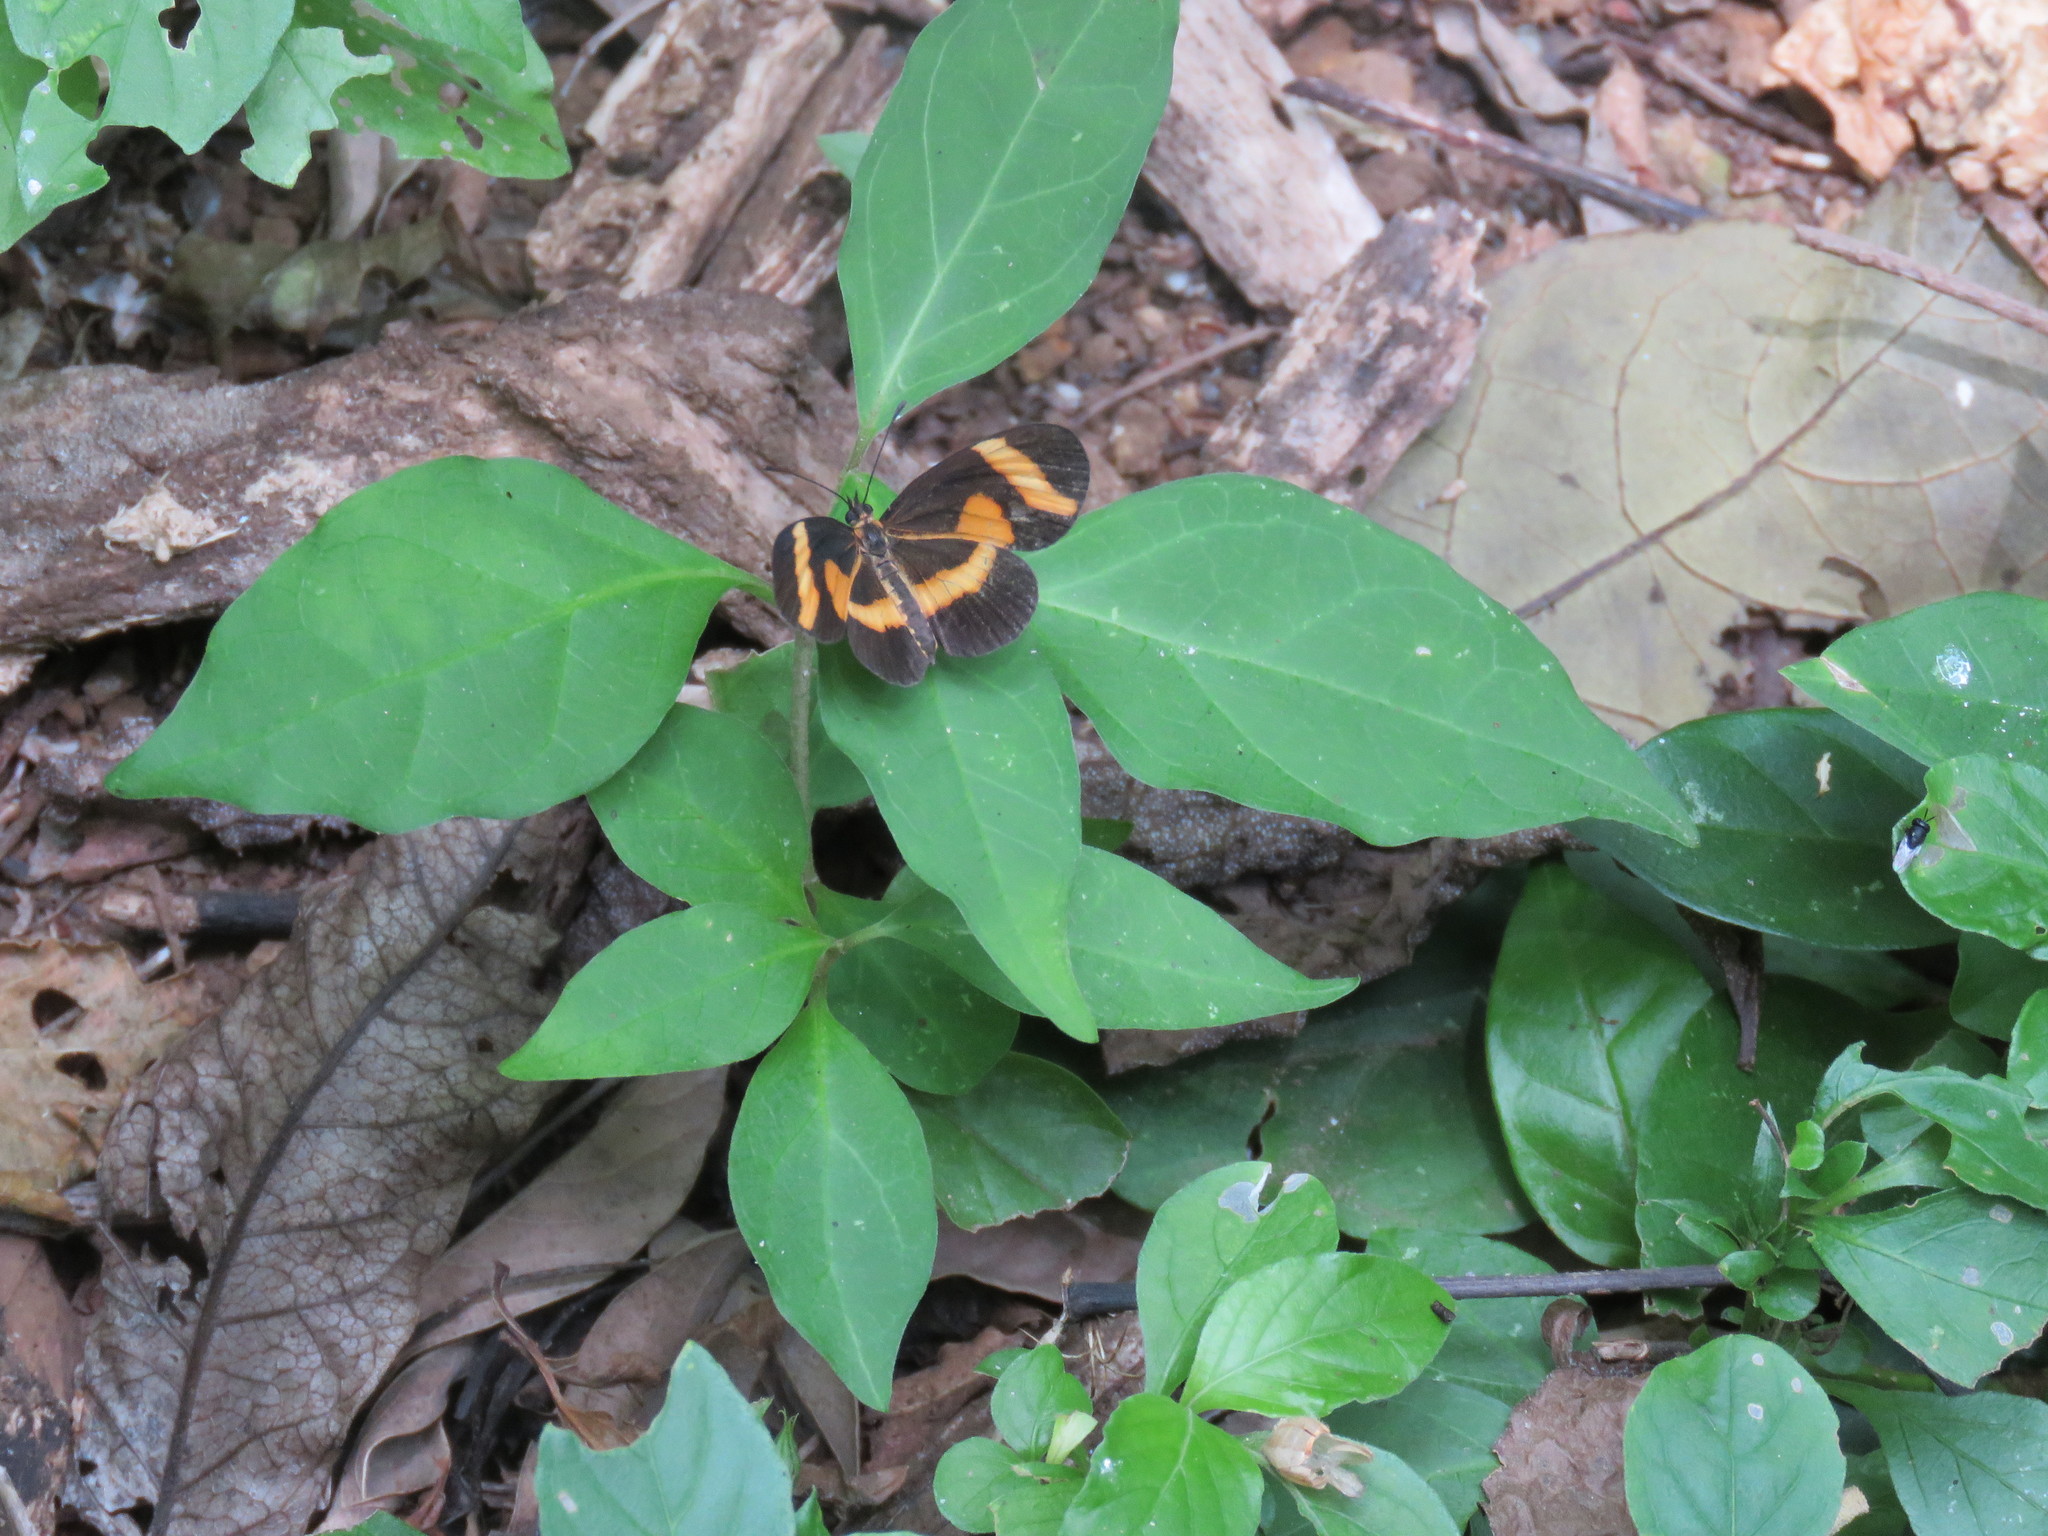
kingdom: Animalia
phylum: Arthropoda
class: Insecta
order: Lepidoptera
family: Nymphalidae
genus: Microtia
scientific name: Microtia elva
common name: Elf
